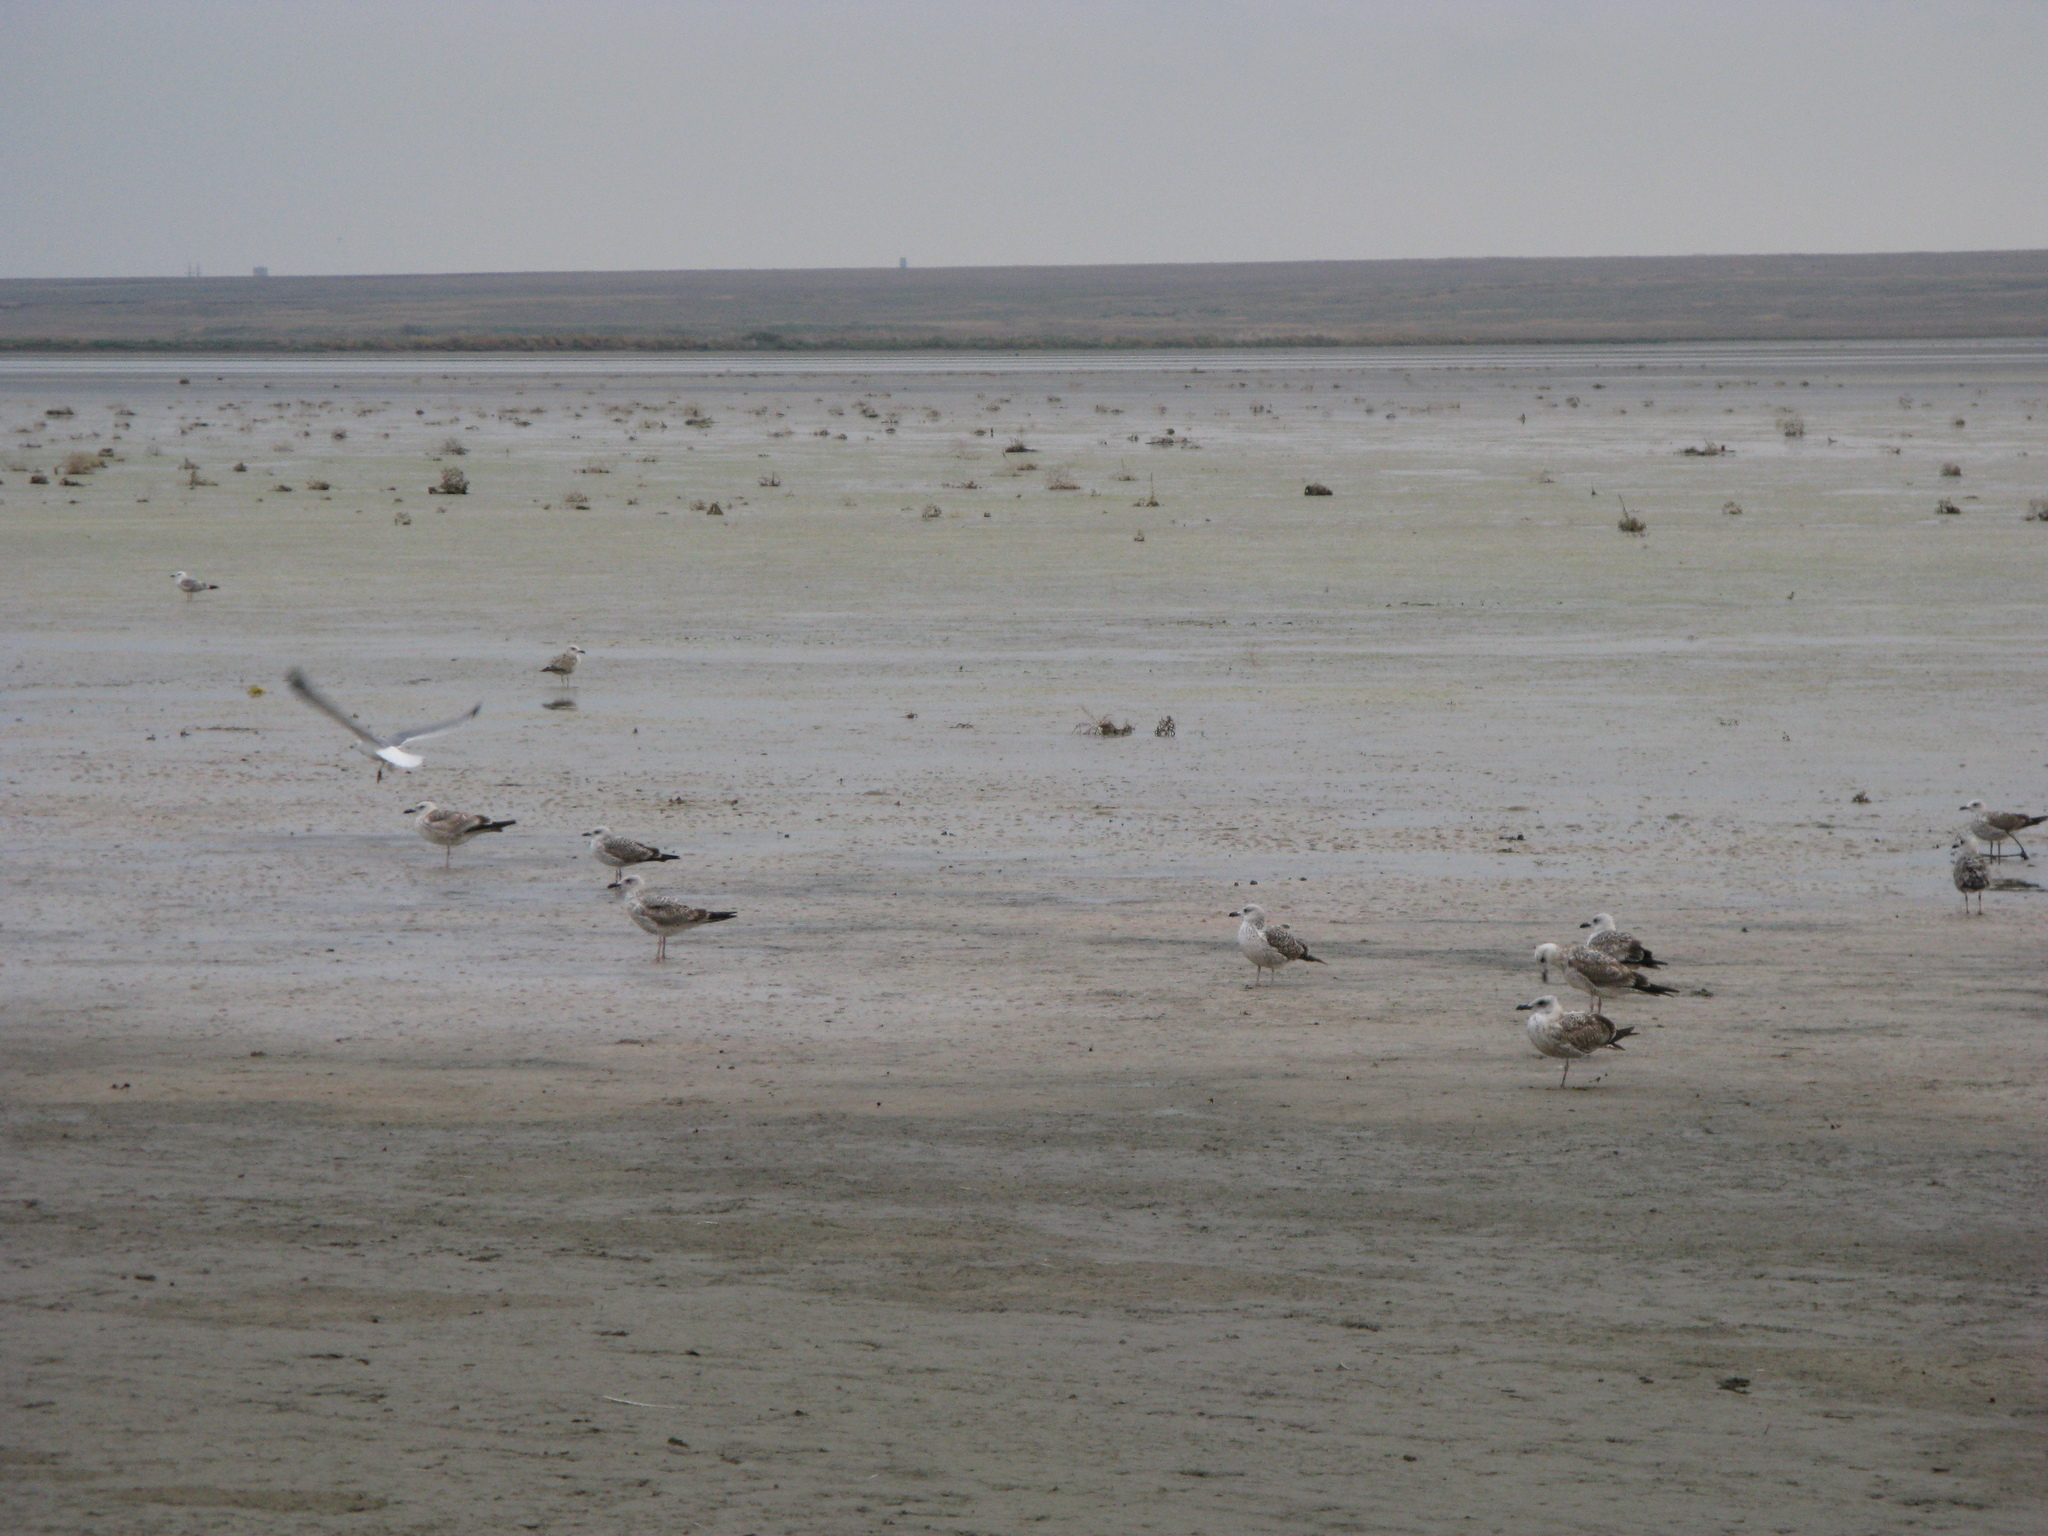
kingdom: Animalia
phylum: Chordata
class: Aves
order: Charadriiformes
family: Laridae
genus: Larus
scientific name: Larus
